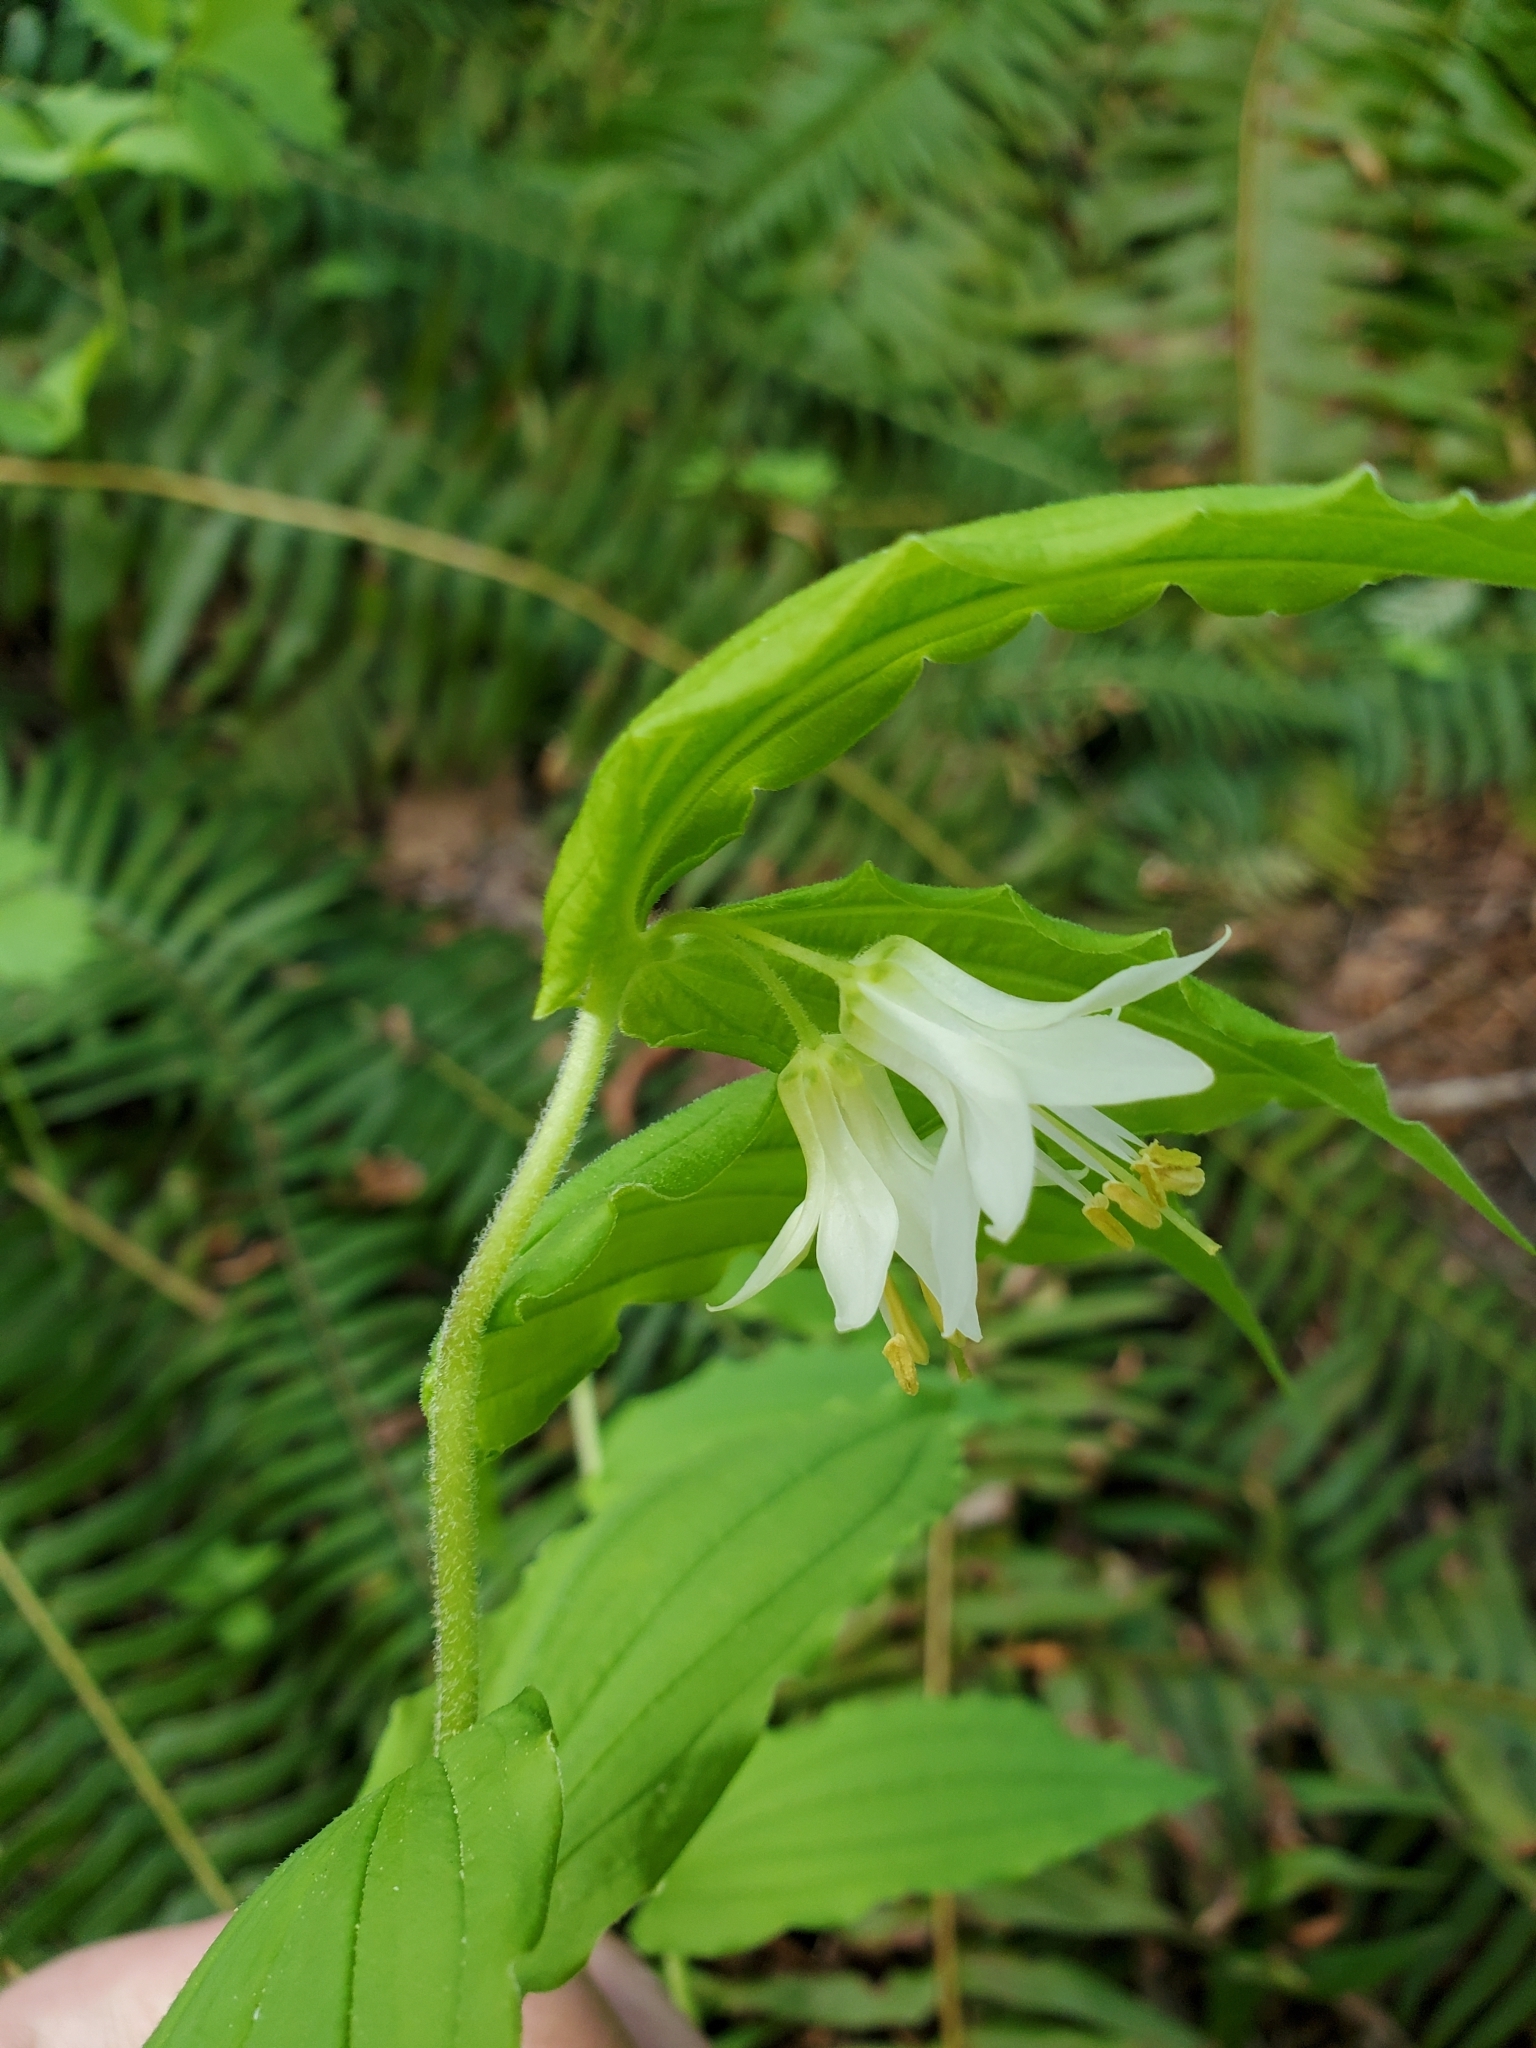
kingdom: Plantae
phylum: Tracheophyta
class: Liliopsida
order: Liliales
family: Liliaceae
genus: Prosartes
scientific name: Prosartes hookeri
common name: Fairy-bells
